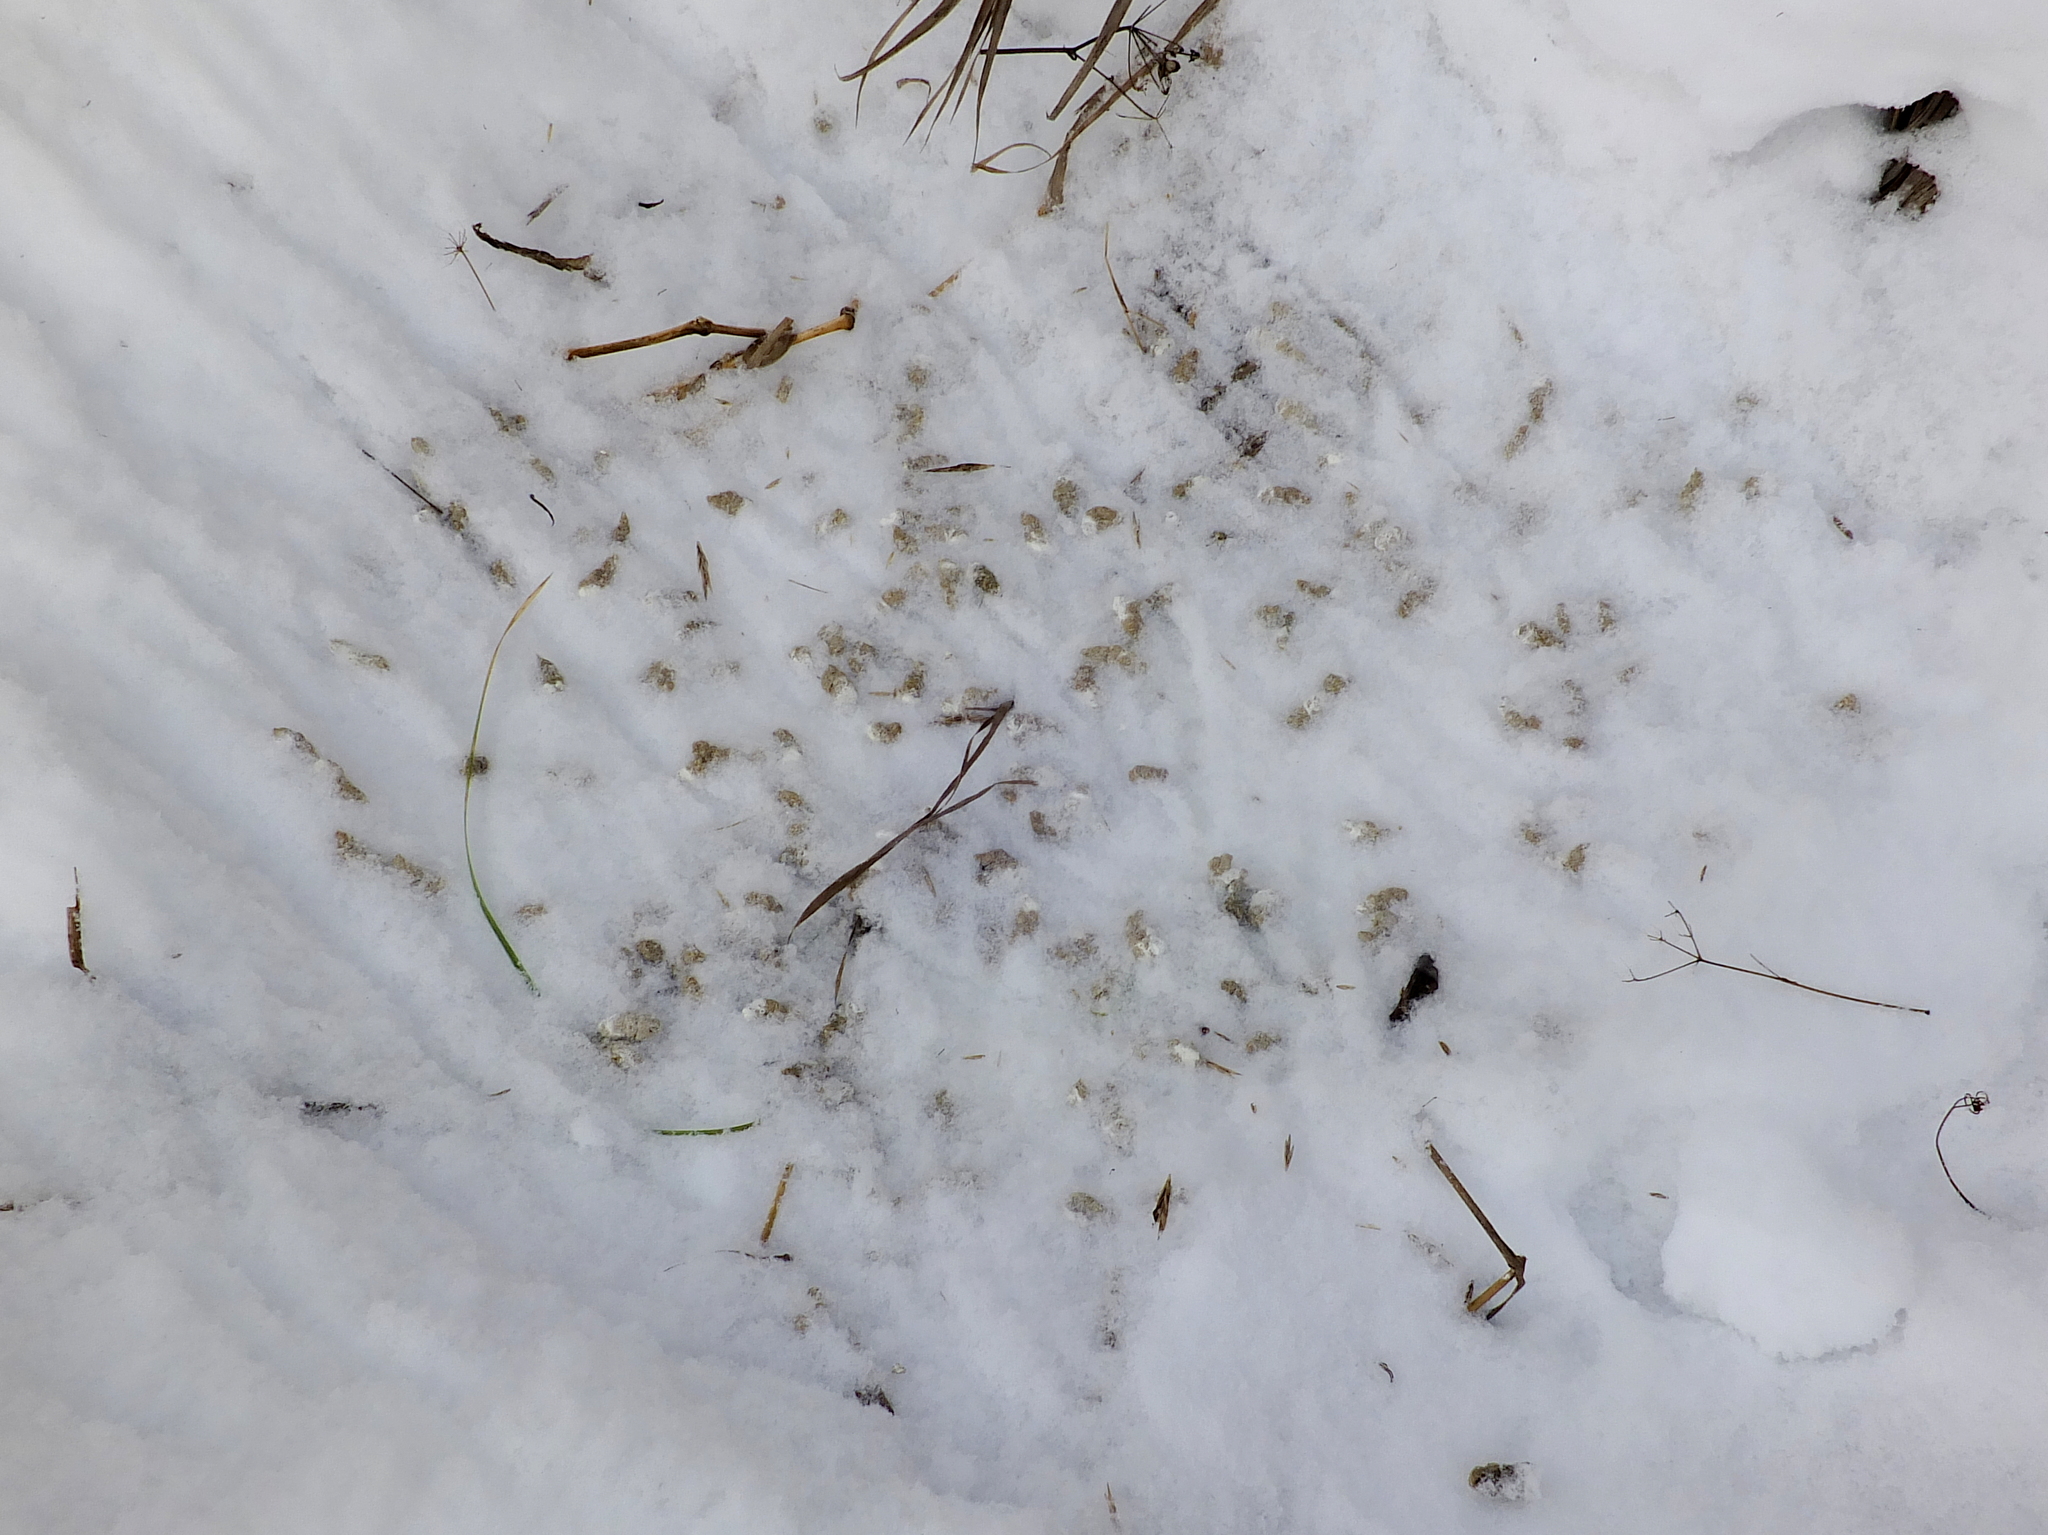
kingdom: Animalia
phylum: Chordata
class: Aves
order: Galliformes
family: Phasianidae
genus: Perdix
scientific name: Perdix perdix
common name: Grey partridge
